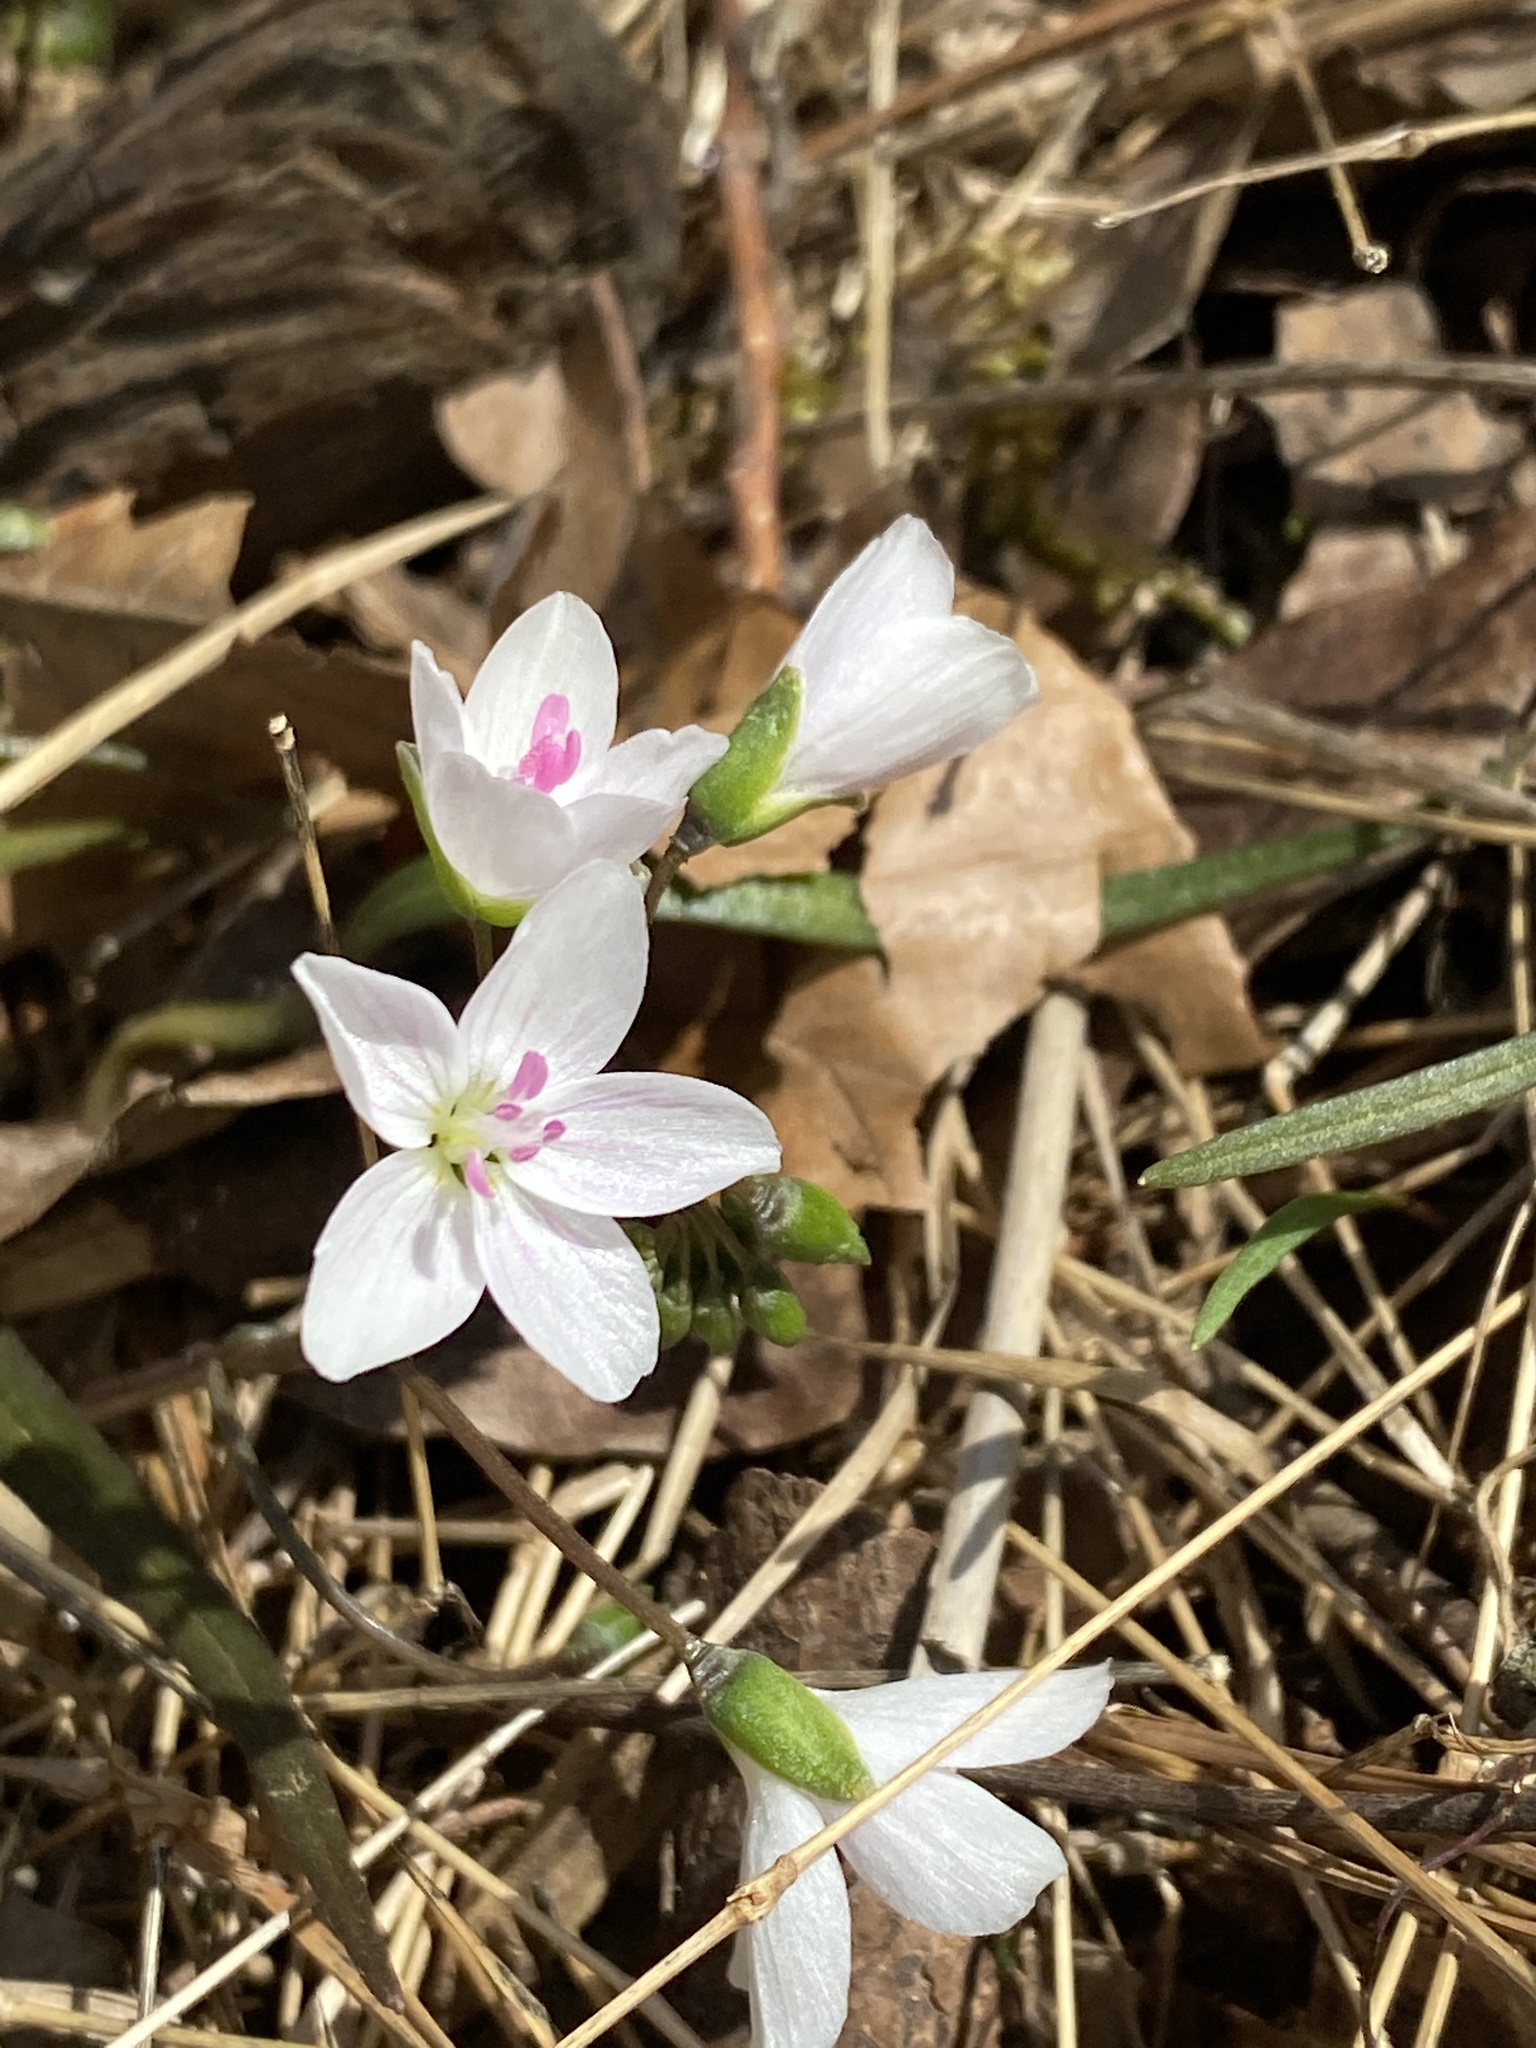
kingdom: Plantae
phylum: Tracheophyta
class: Magnoliopsida
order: Caryophyllales
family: Montiaceae
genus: Claytonia
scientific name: Claytonia virginica
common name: Virginia springbeauty
